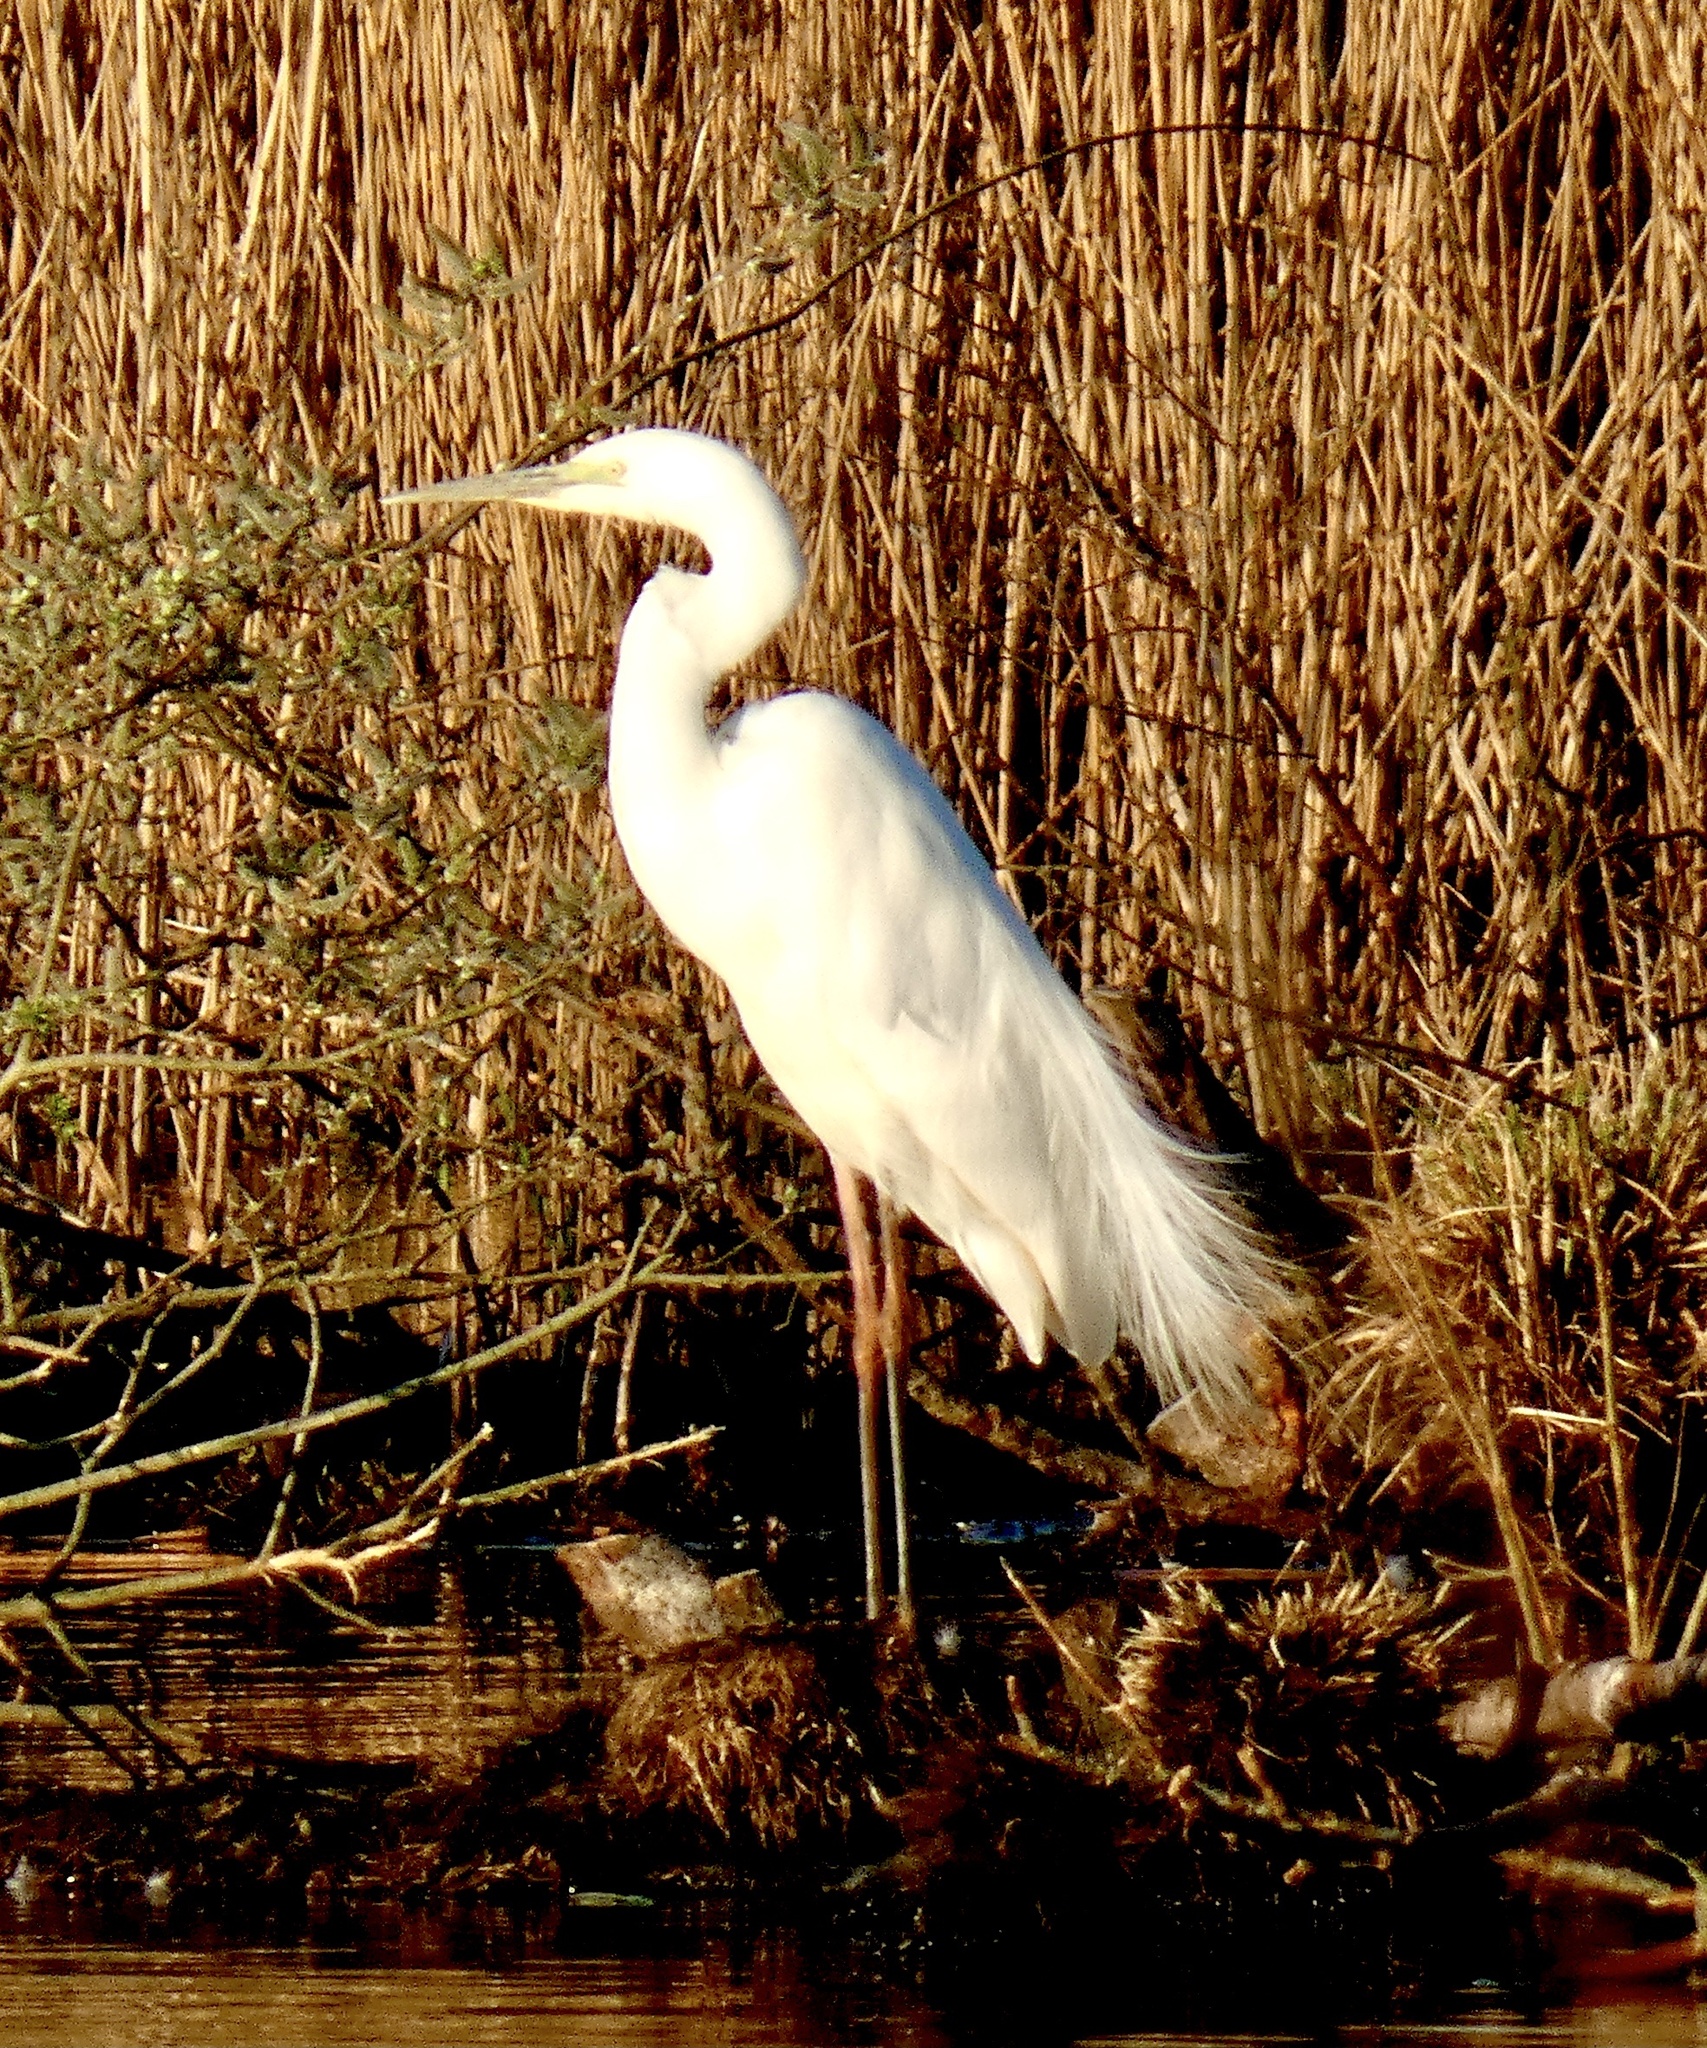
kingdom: Animalia
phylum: Chordata
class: Aves
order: Pelecaniformes
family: Ardeidae
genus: Ardea
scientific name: Ardea alba
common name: Great egret
